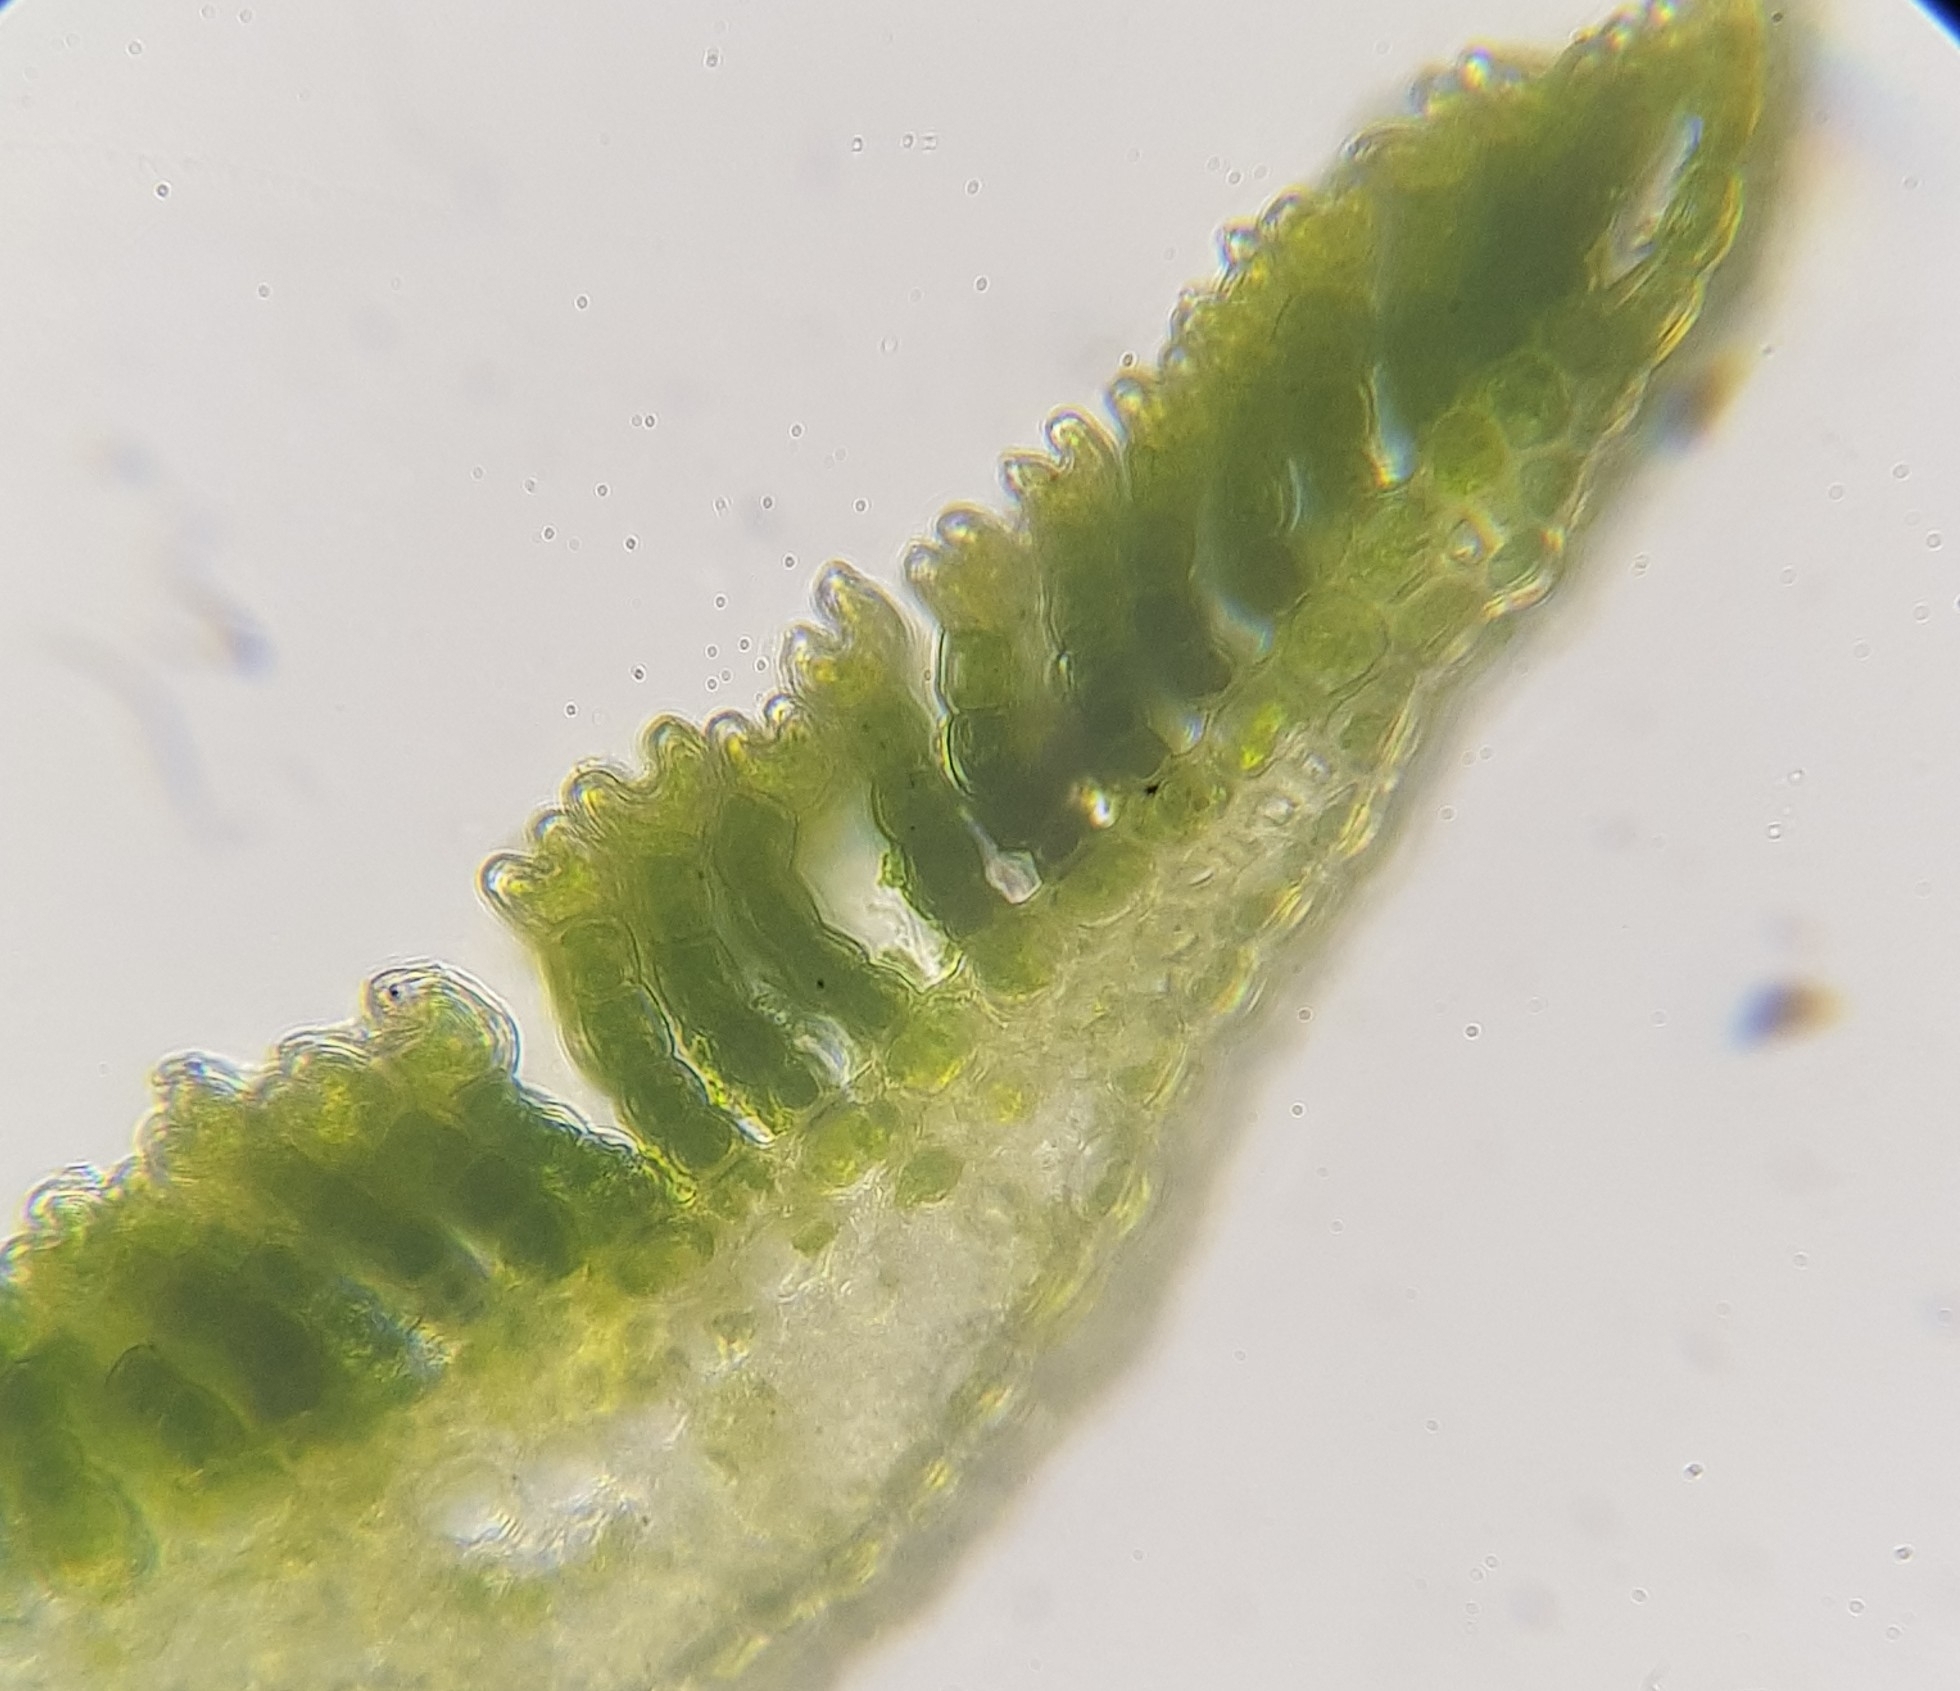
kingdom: Plantae
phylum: Bryophyta
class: Polytrichopsida
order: Polytrichales
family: Polytrichaceae
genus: Polytrichum
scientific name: Polytrichum commune
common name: Common haircap
